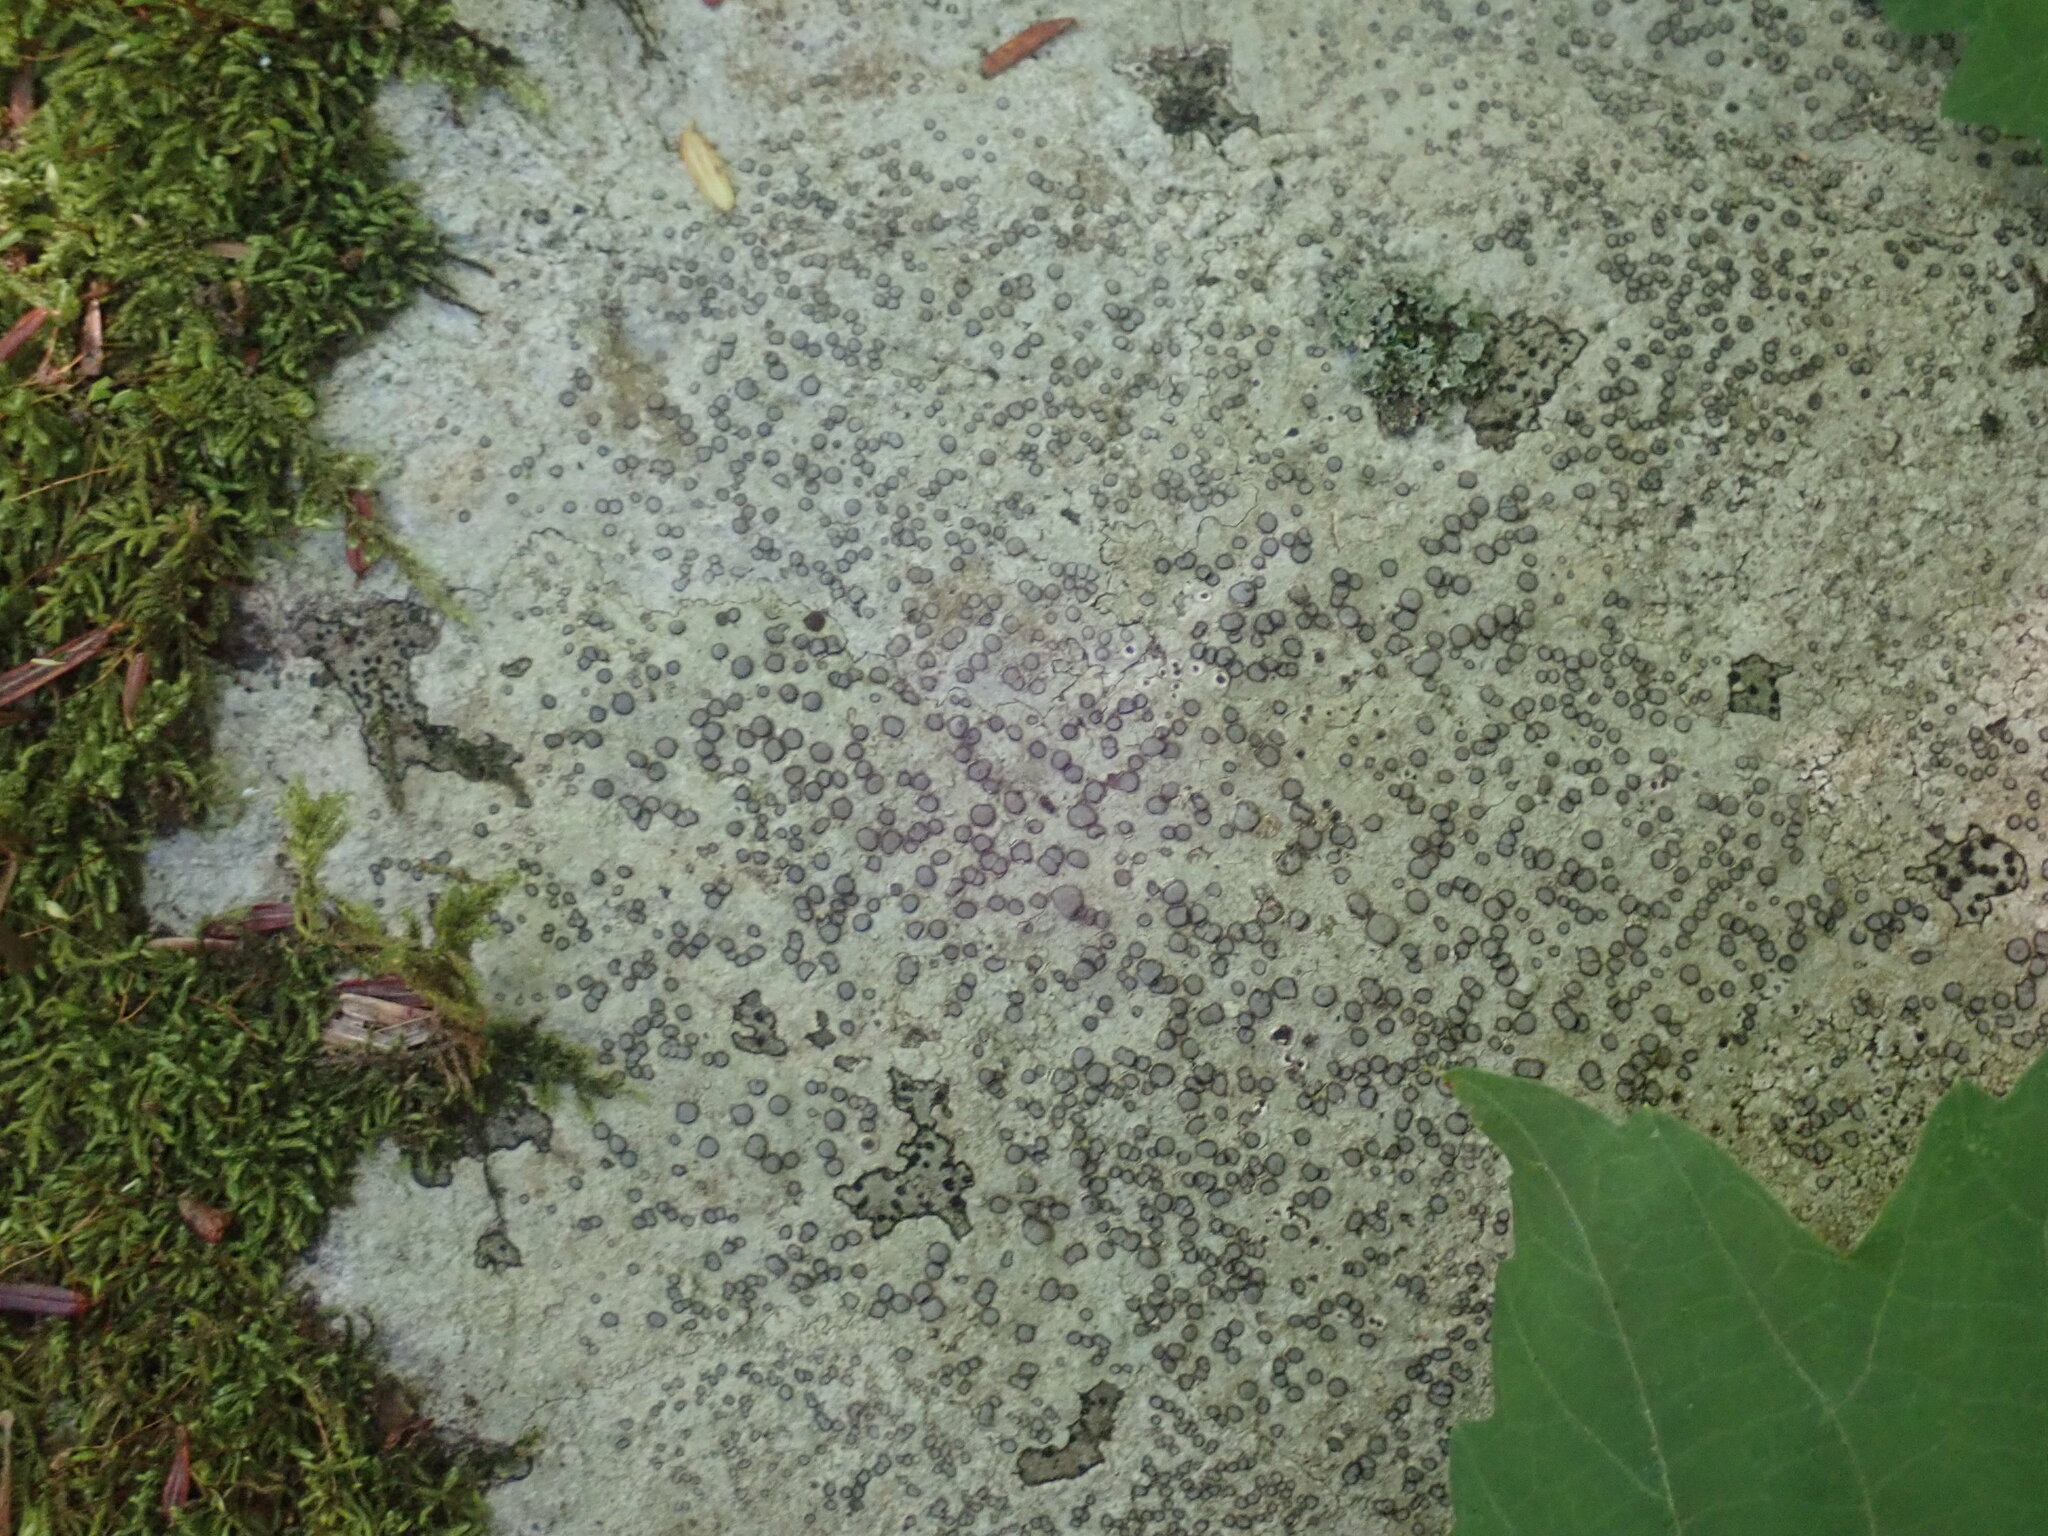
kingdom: Fungi
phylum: Ascomycota
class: Lecanoromycetes
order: Lecideales
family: Lecideaceae
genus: Porpidia
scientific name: Porpidia albocaerulescens
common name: Smokey-eyed boulder lichen
